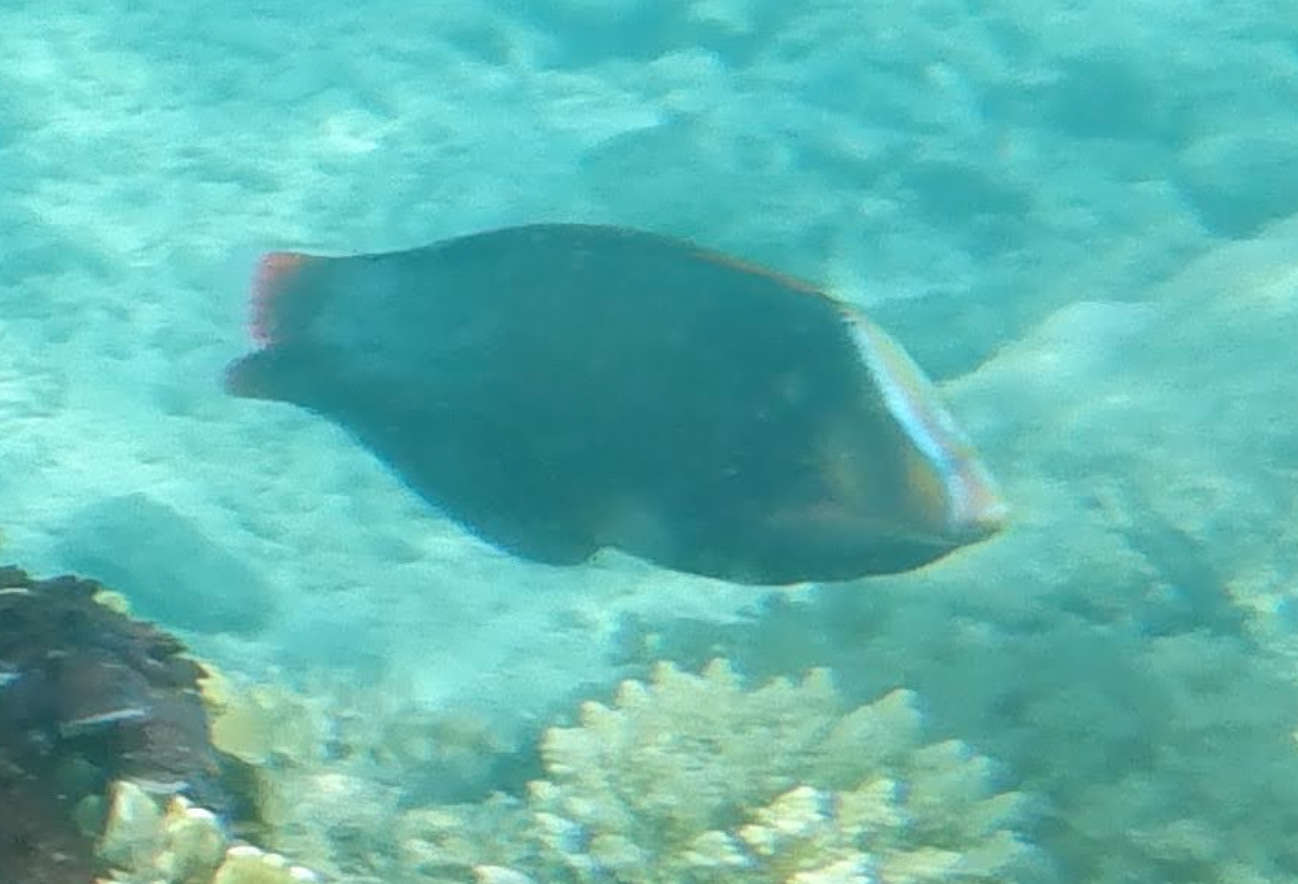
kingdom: Animalia
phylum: Chordata
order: Perciformes
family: Labridae
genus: Coris
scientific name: Coris formosa
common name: Queen coris
